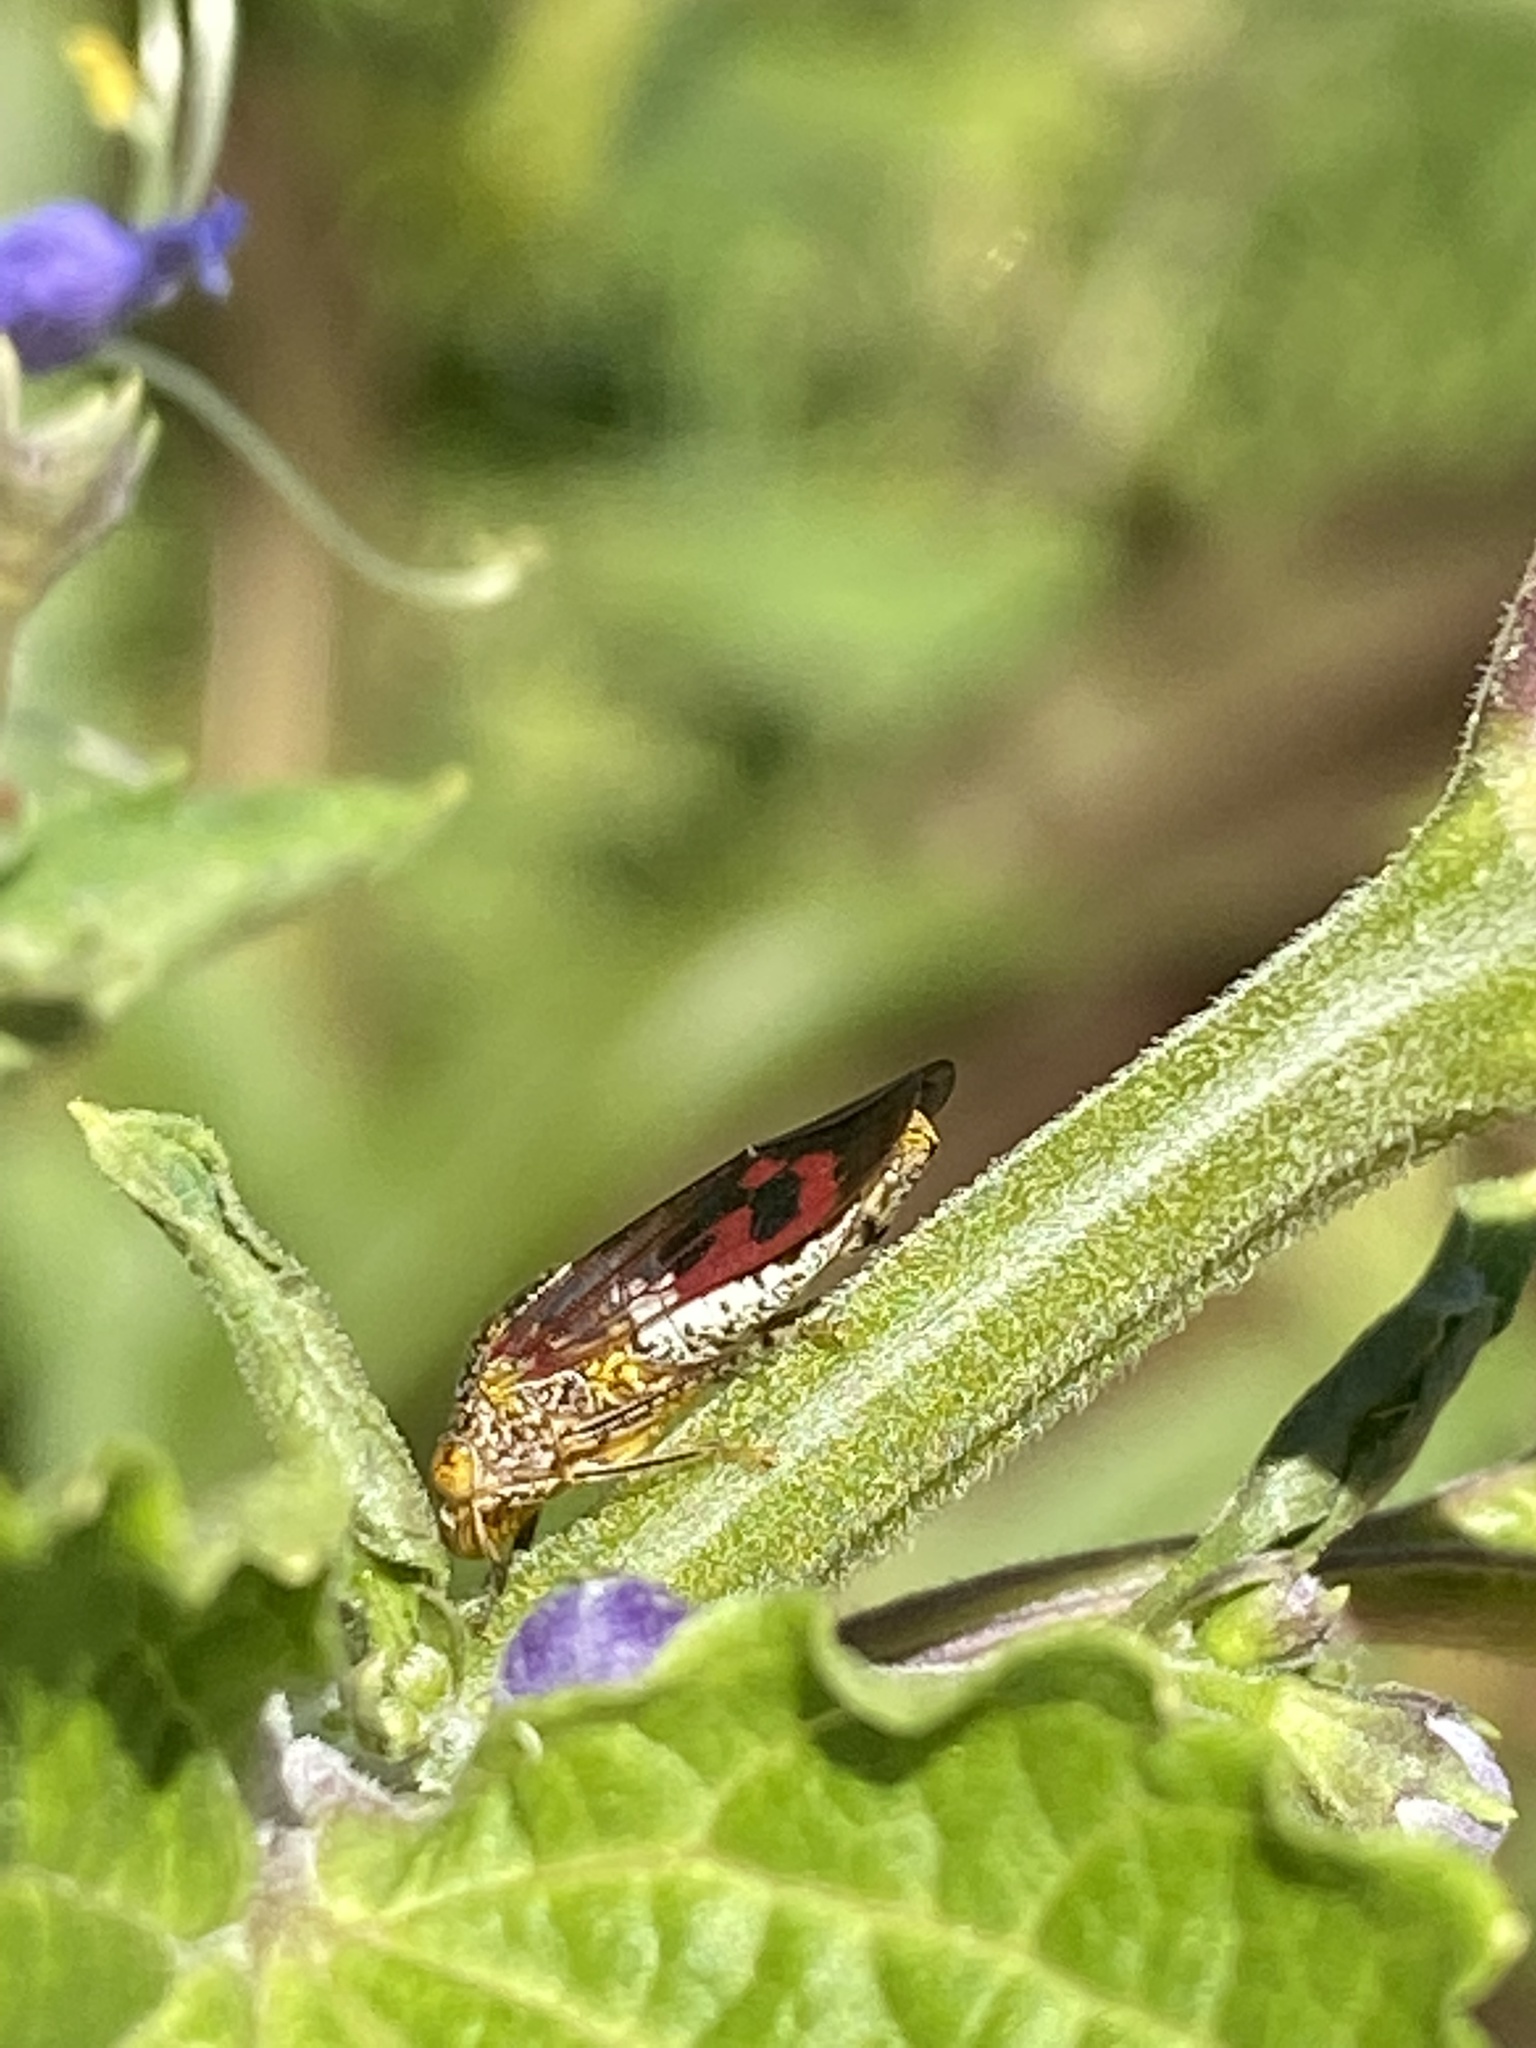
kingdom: Animalia
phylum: Arthropoda
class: Insecta
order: Hemiptera
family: Cicadellidae
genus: Homalodisca
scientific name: Homalodisca vitripennis
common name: Glassy-winged sharpshooter
